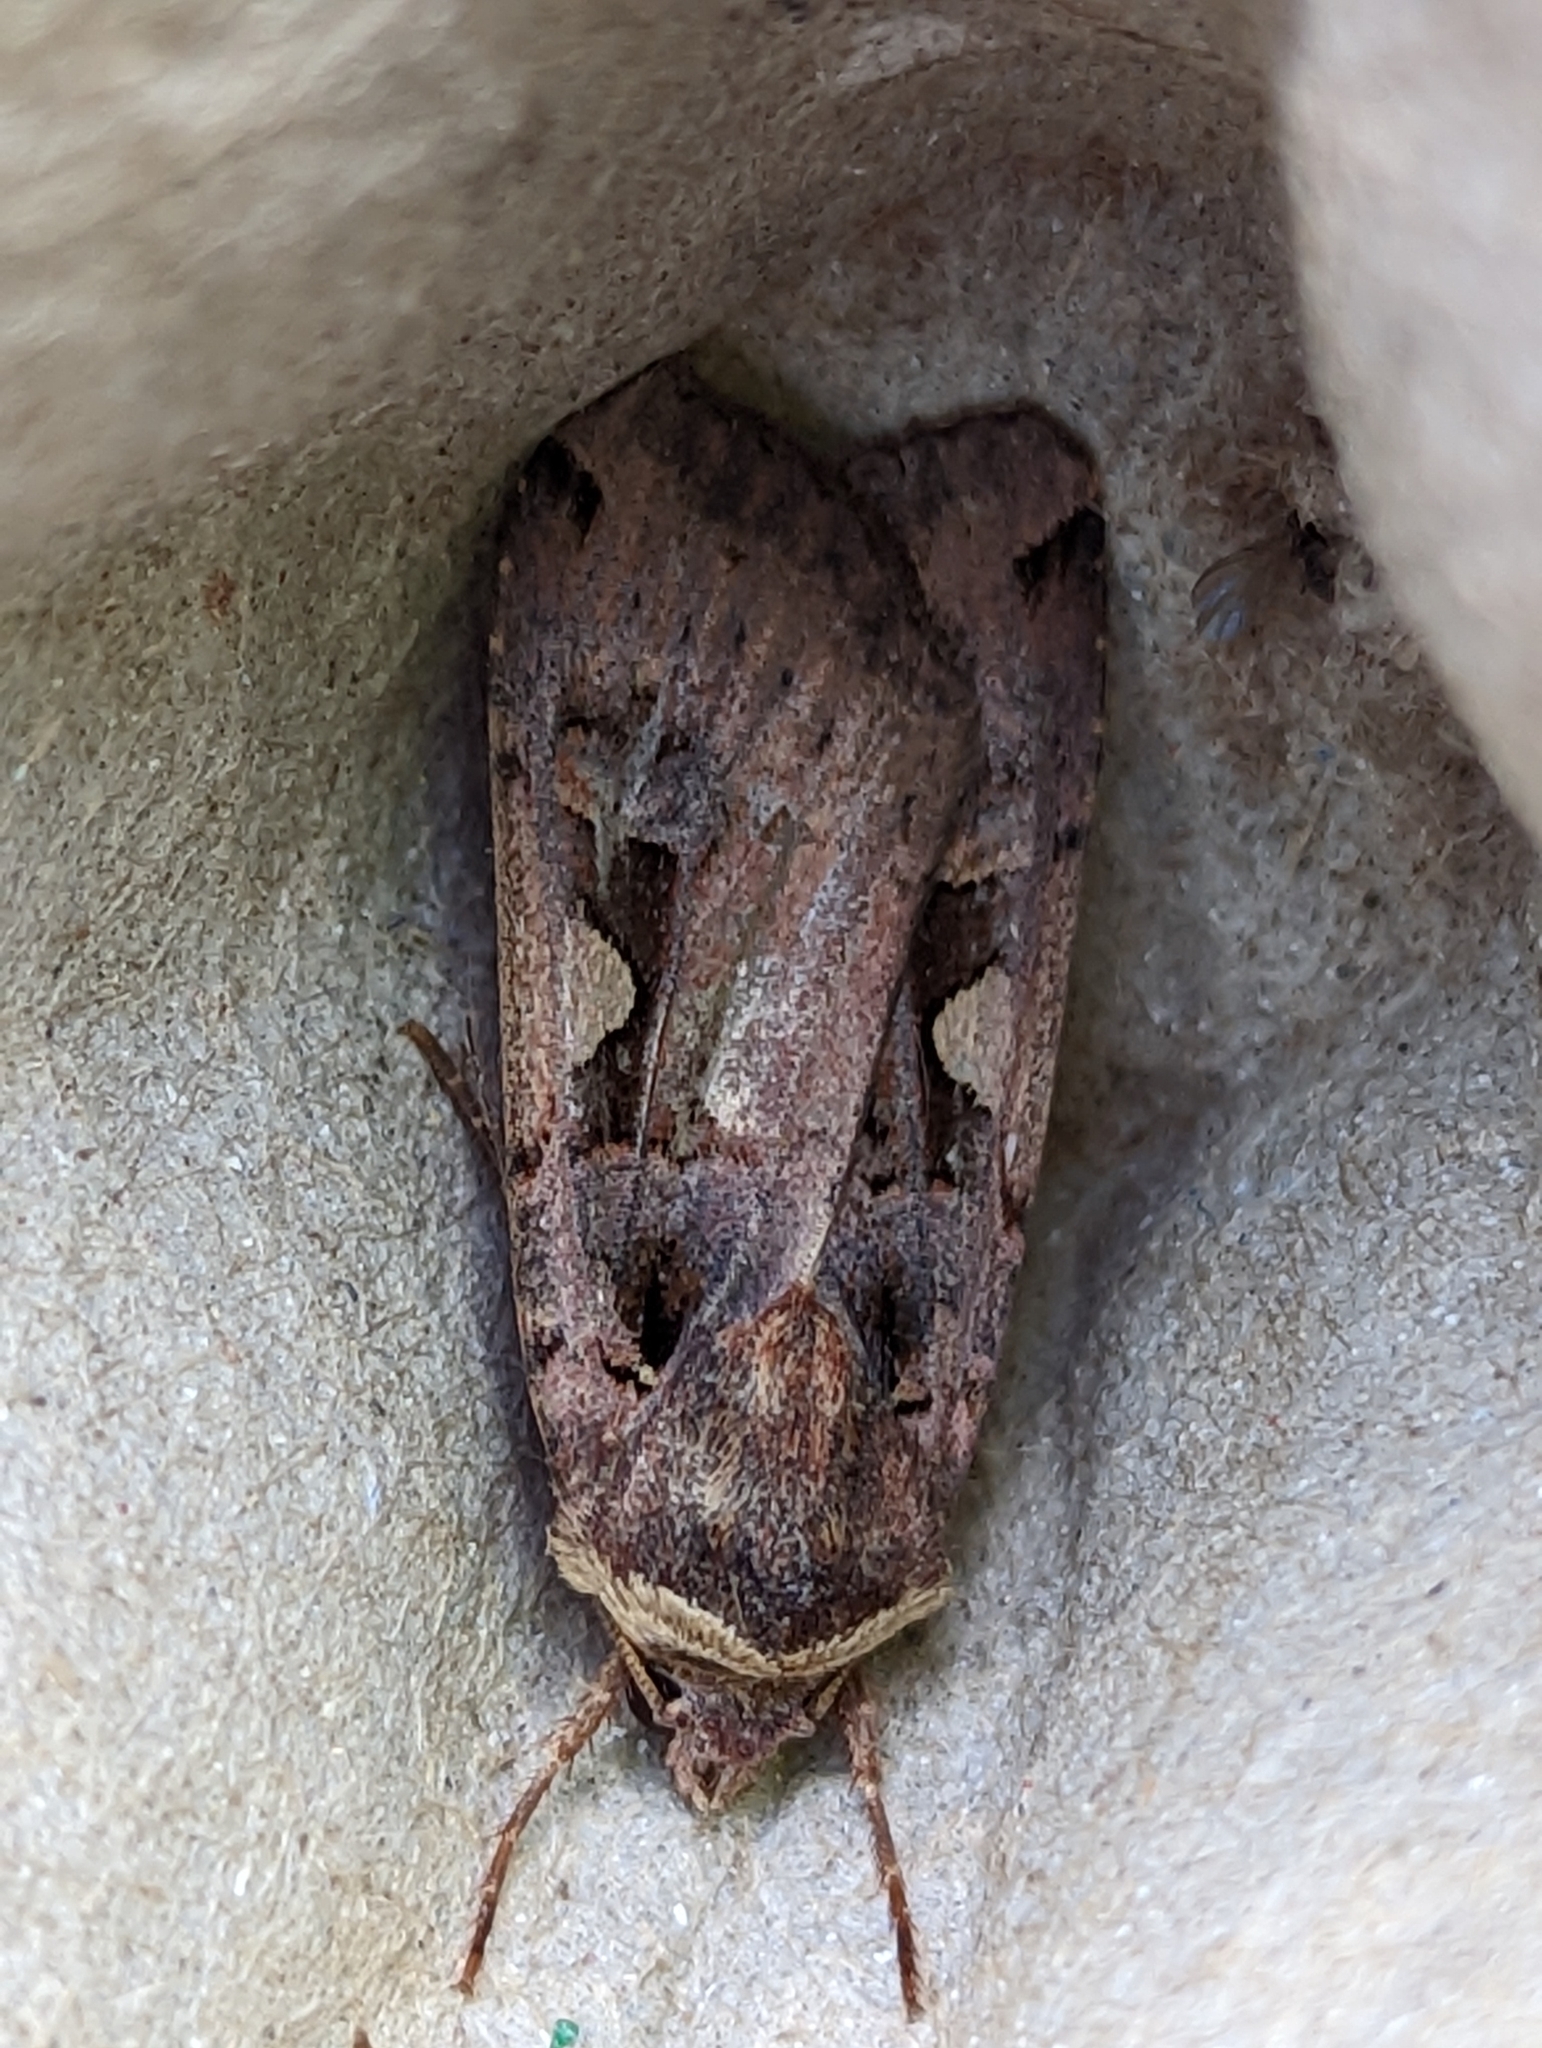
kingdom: Animalia
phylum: Arthropoda
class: Insecta
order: Lepidoptera
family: Noctuidae
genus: Xestia
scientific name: Xestia c-nigrum
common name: Setaceous hebrew character
